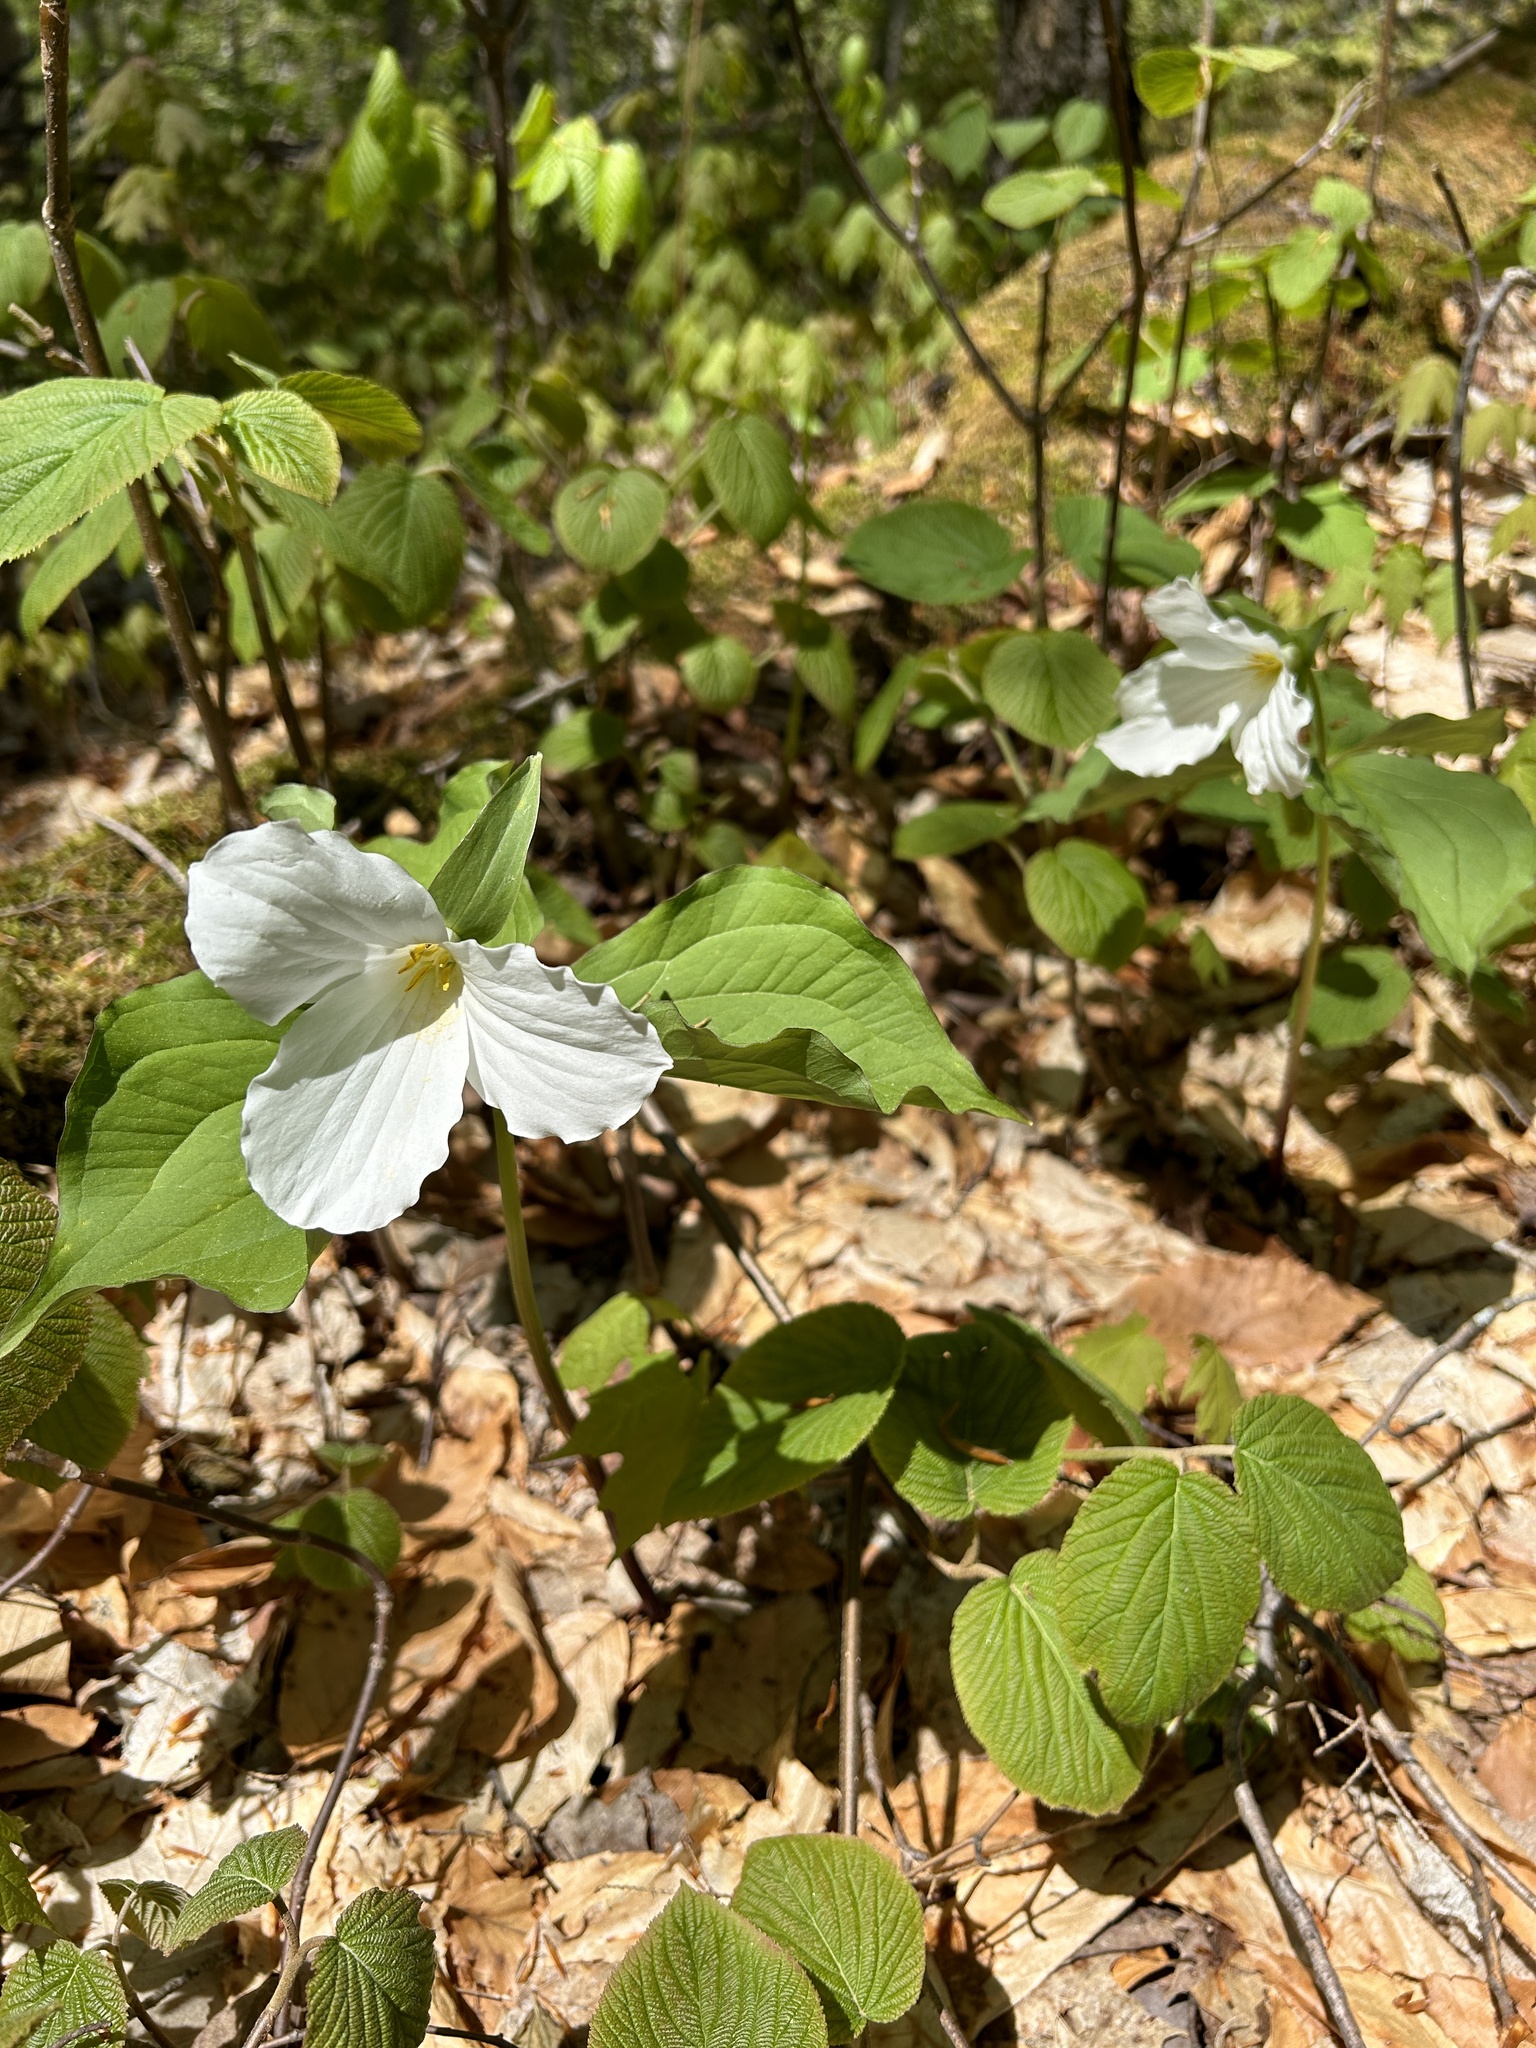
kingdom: Plantae
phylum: Tracheophyta
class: Liliopsida
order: Liliales
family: Melanthiaceae
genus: Trillium
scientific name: Trillium grandiflorum
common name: Great white trillium
